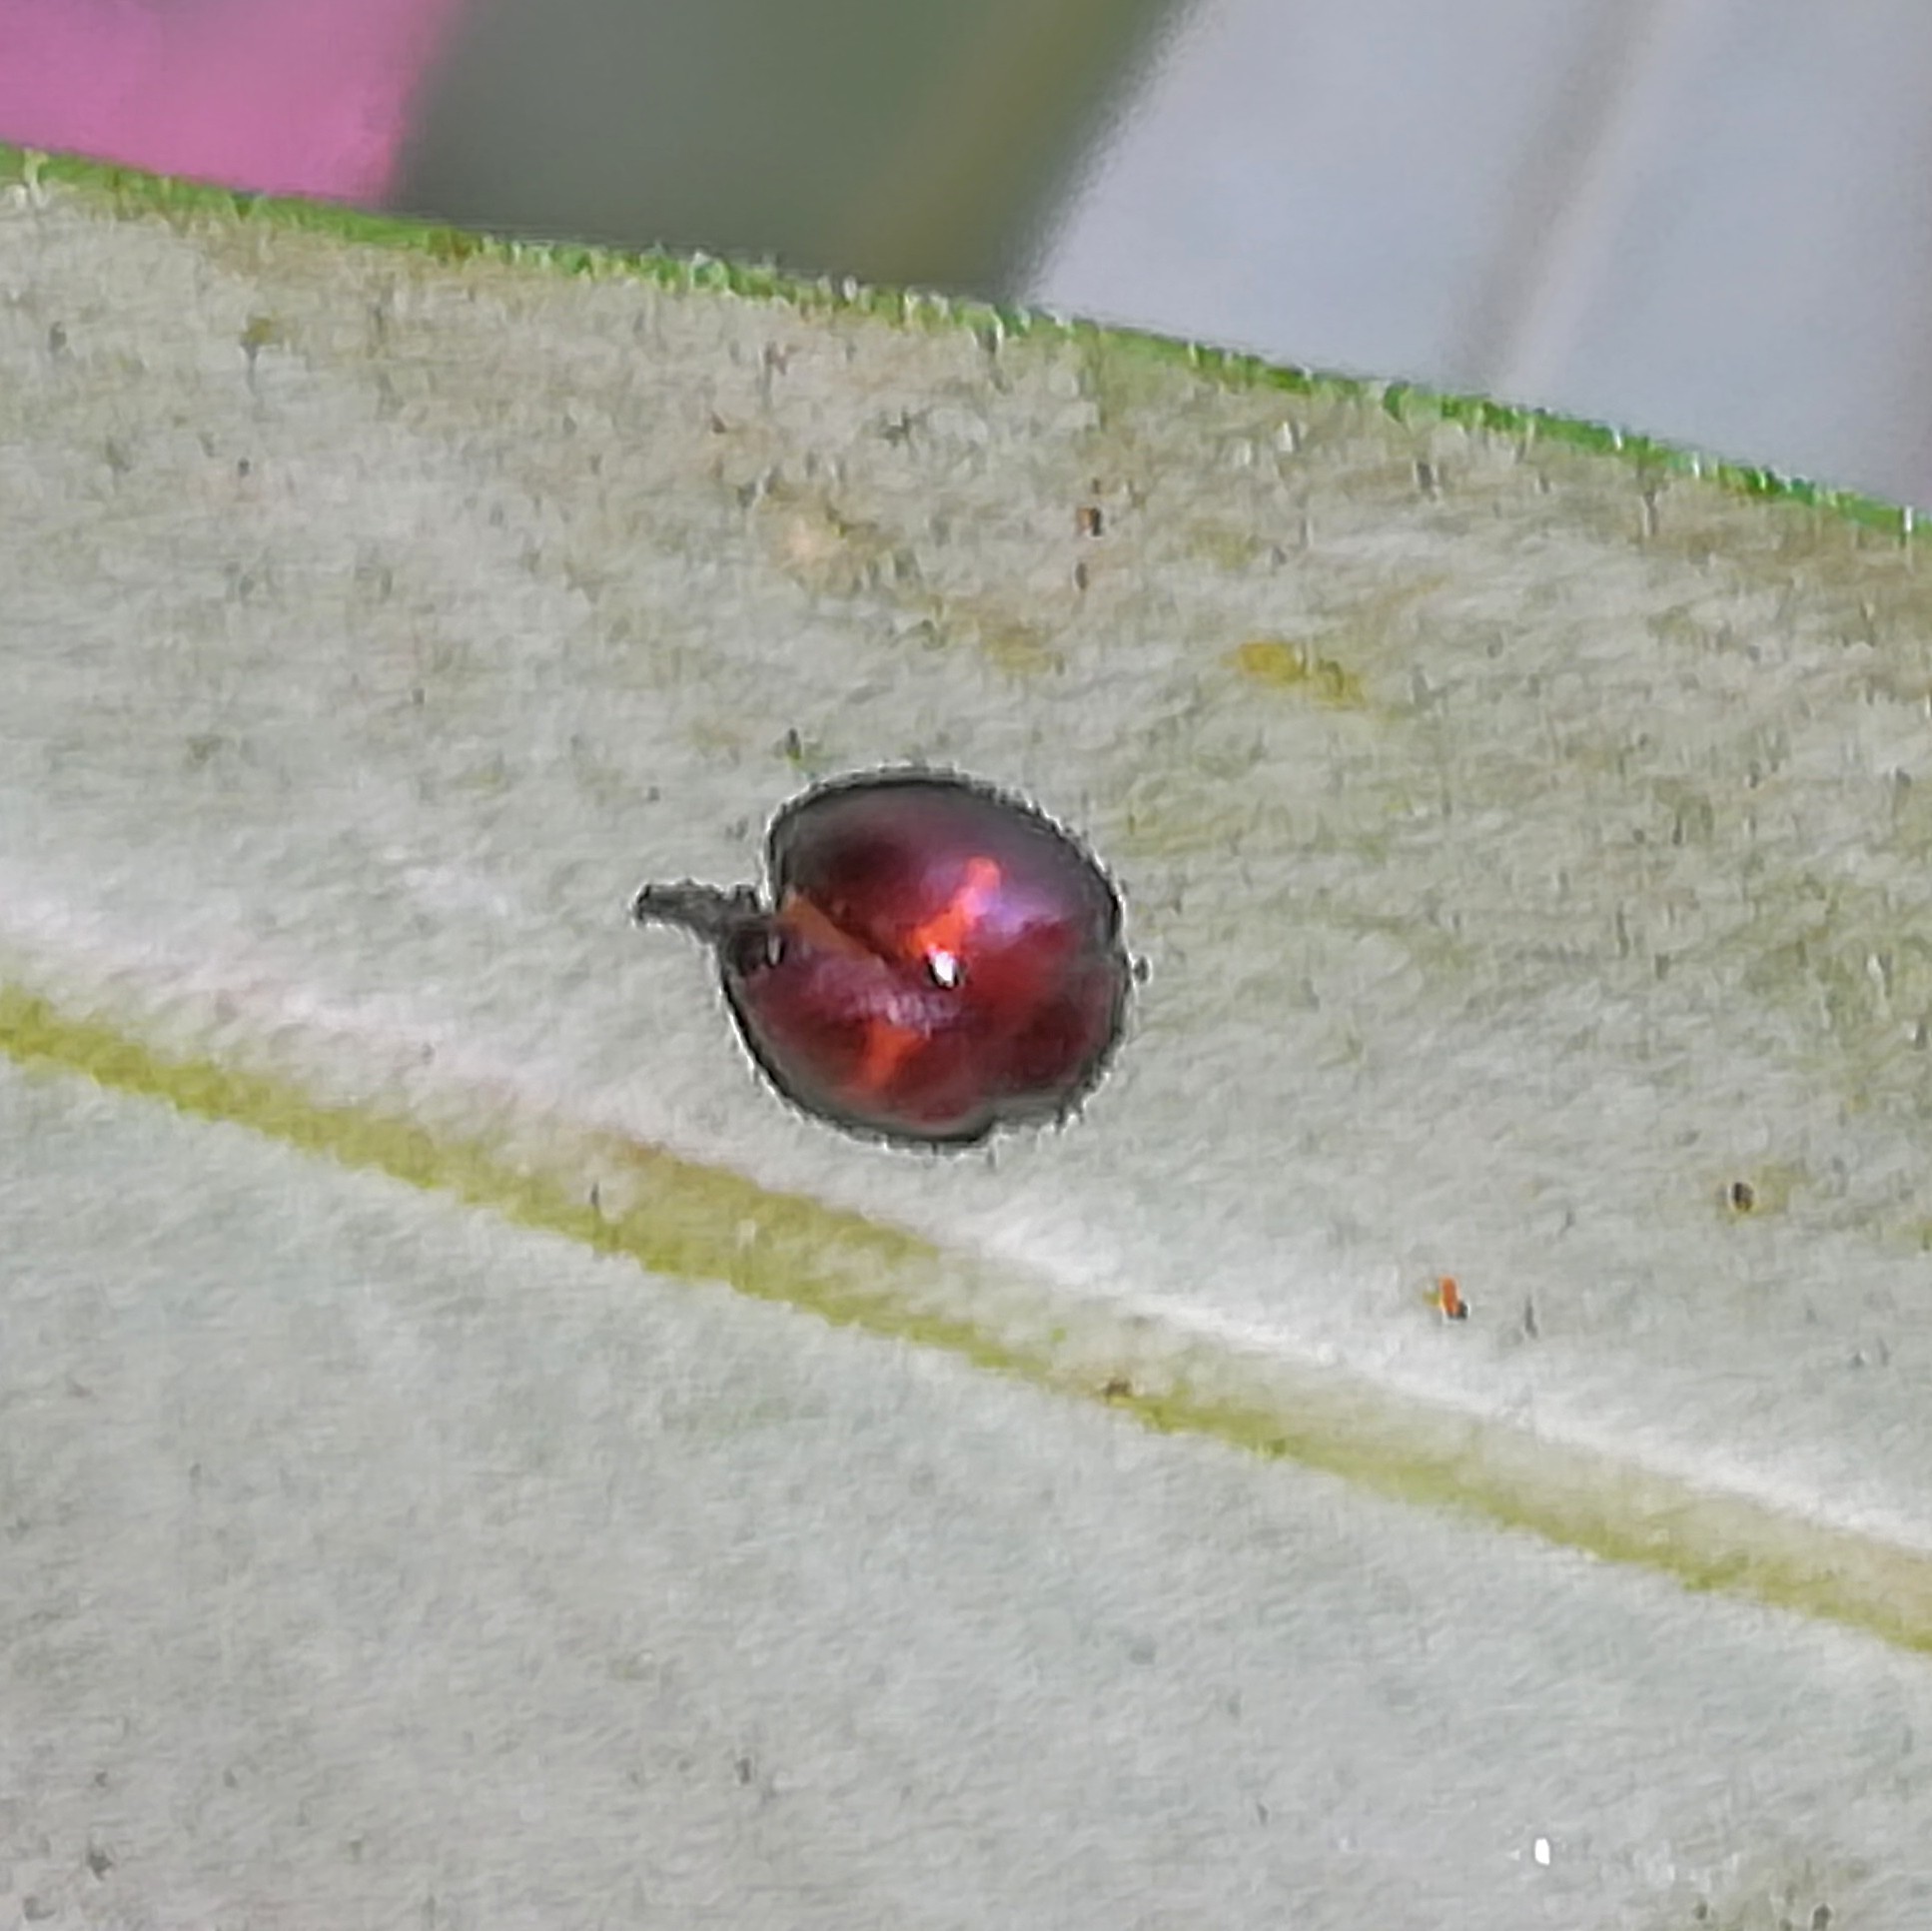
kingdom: Animalia
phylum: Arthropoda
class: Insecta
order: Coleoptera
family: Coccinellidae
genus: Chilocorus
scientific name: Chilocorus bipustulatus
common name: Heather ladybird
